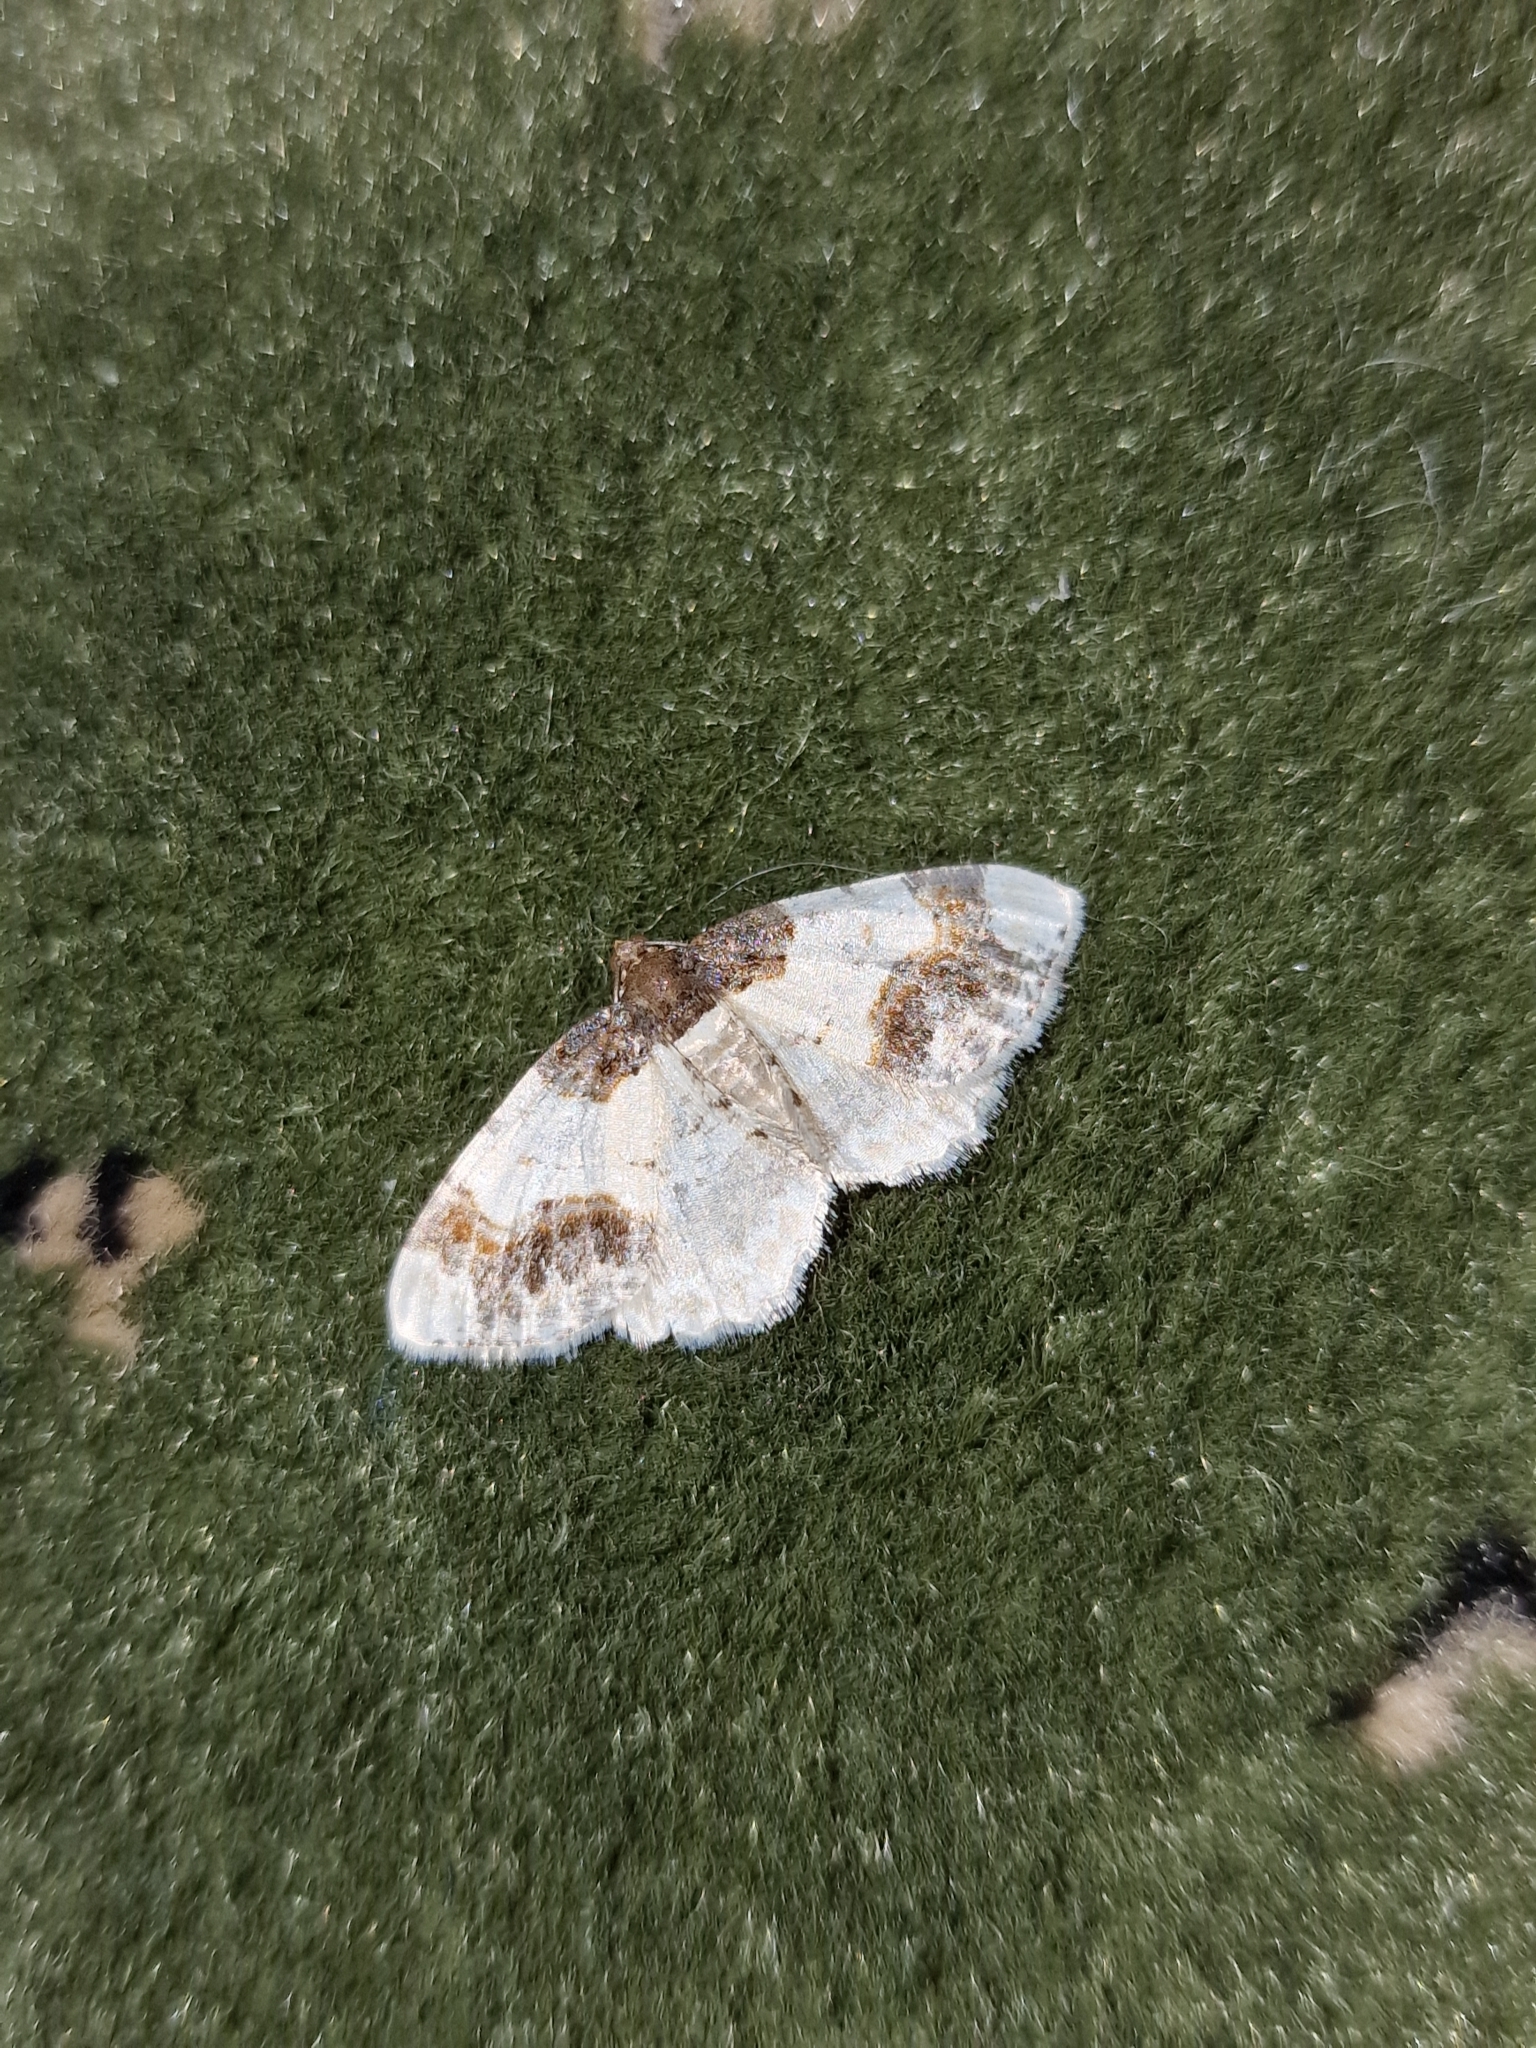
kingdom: Animalia
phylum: Arthropoda
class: Insecta
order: Lepidoptera
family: Geometridae
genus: Ligdia
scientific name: Ligdia adustata
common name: Scorched carpet
